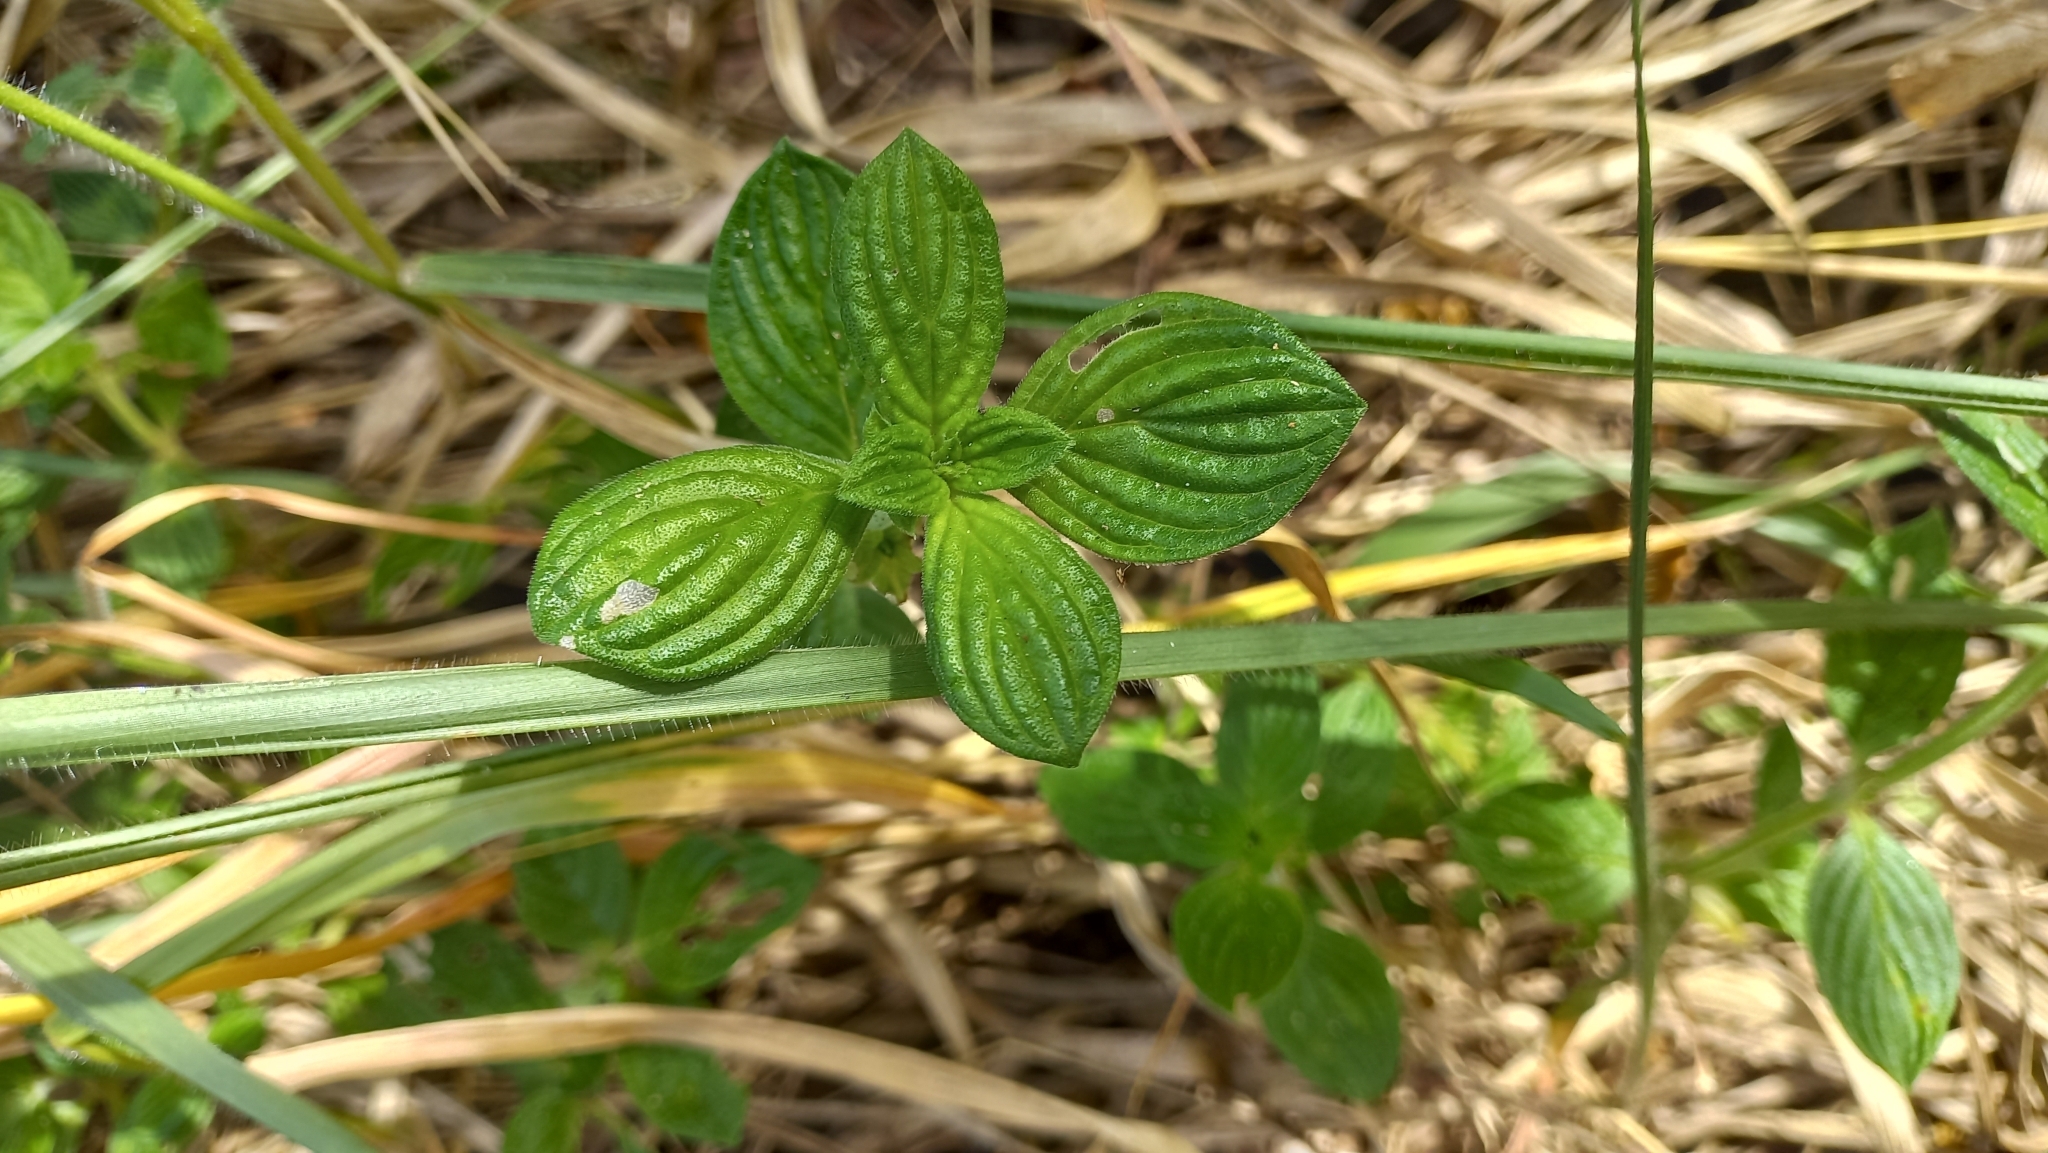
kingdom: Plantae
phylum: Tracheophyta
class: Magnoliopsida
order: Gentianales
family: Rubiaceae
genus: Hexasepalum
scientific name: Hexasepalum radulum
